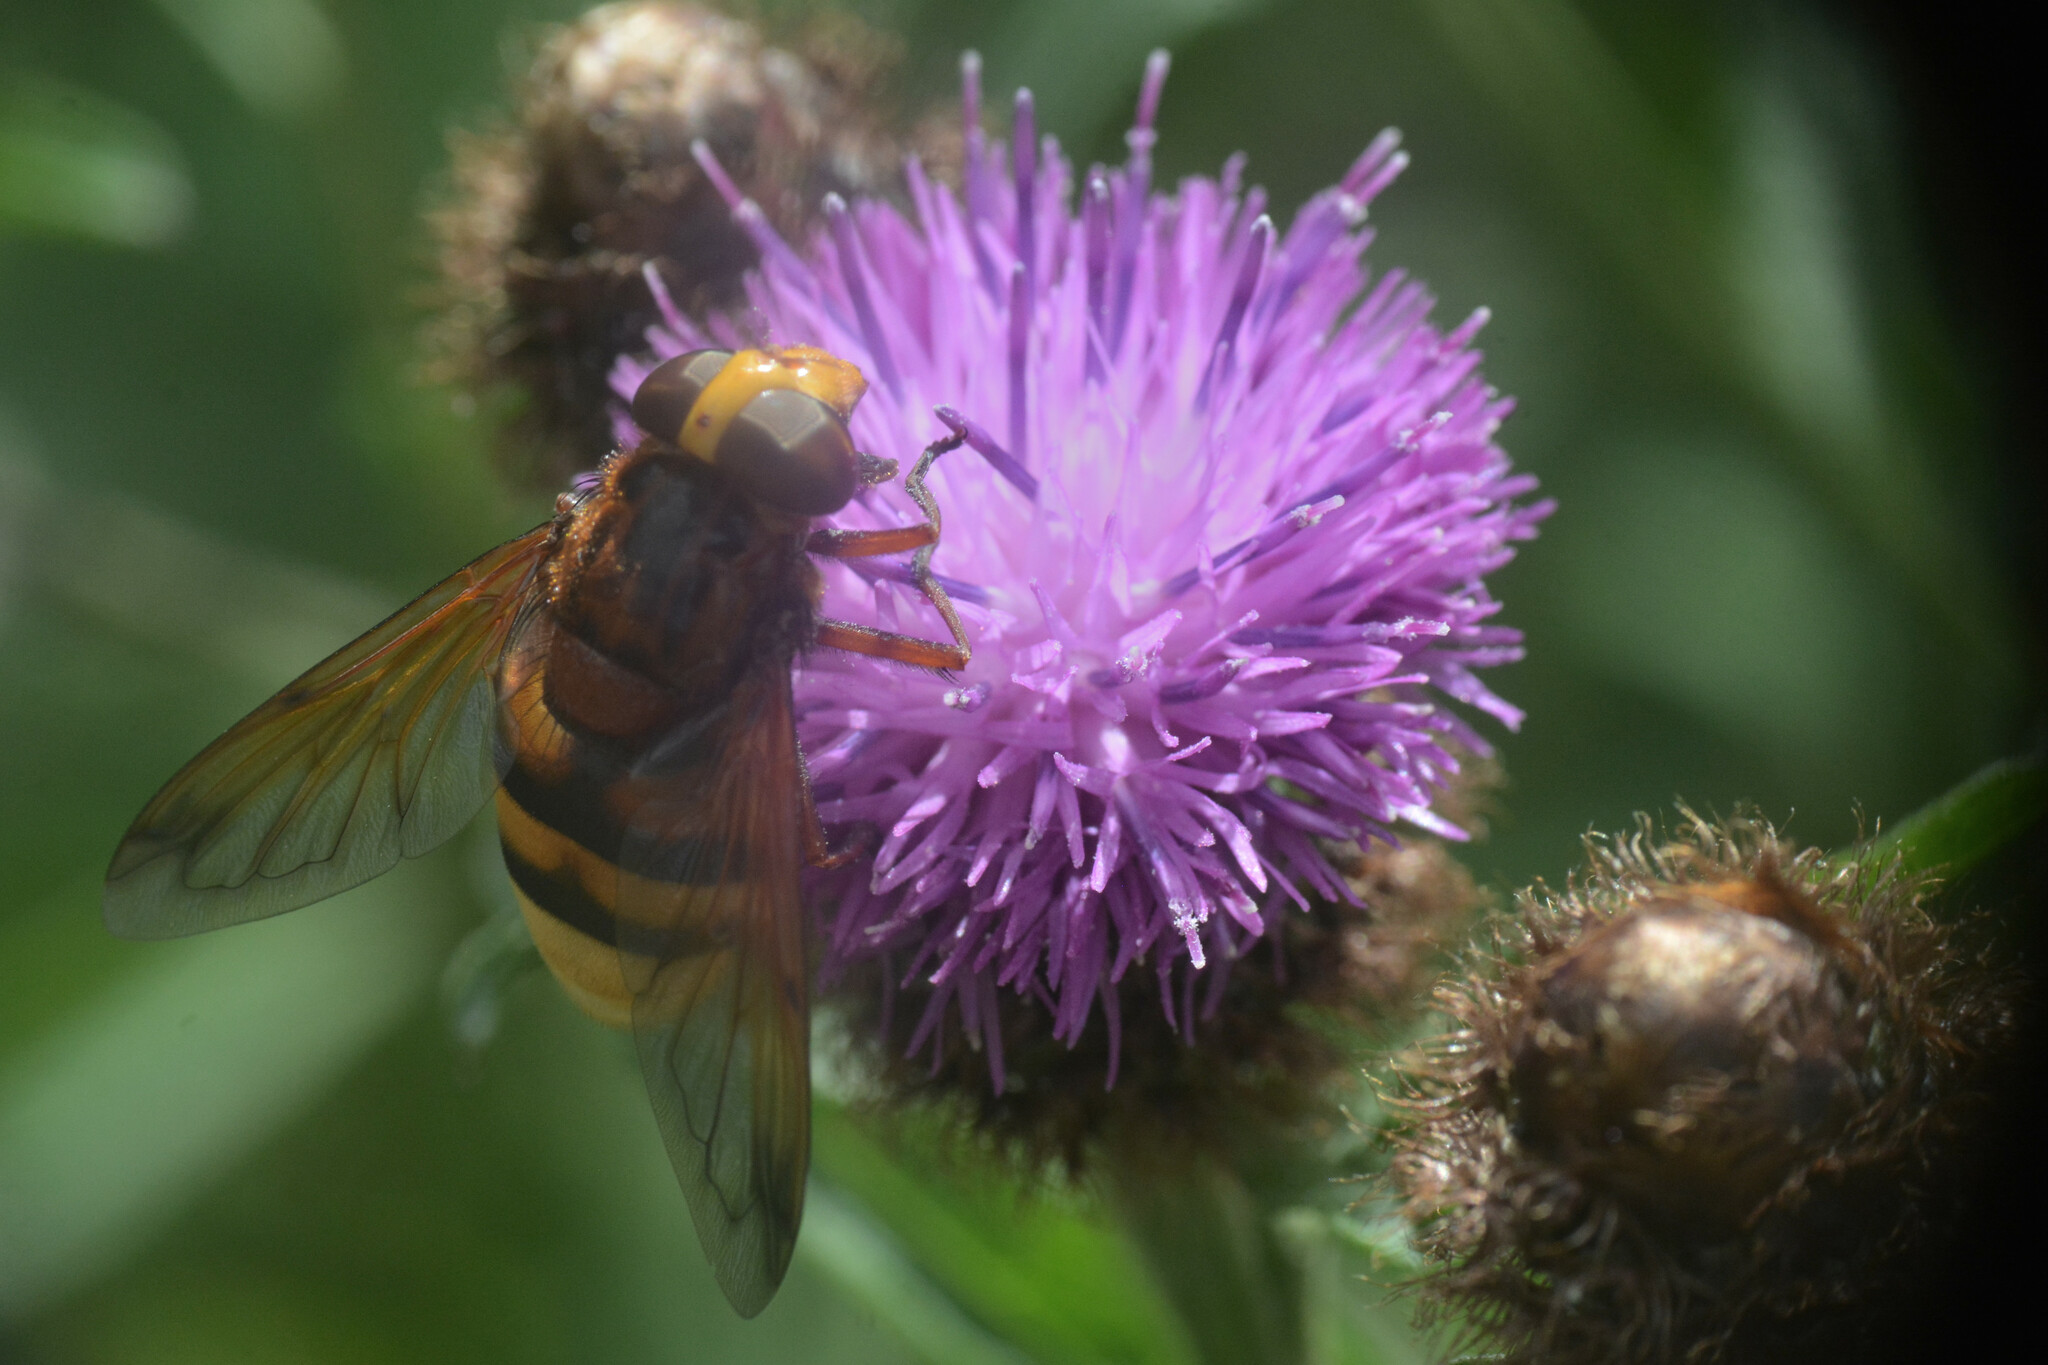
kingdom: Animalia
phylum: Arthropoda
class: Insecta
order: Diptera
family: Syrphidae
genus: Volucella
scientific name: Volucella zonaria
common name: Hornet hoverfly
